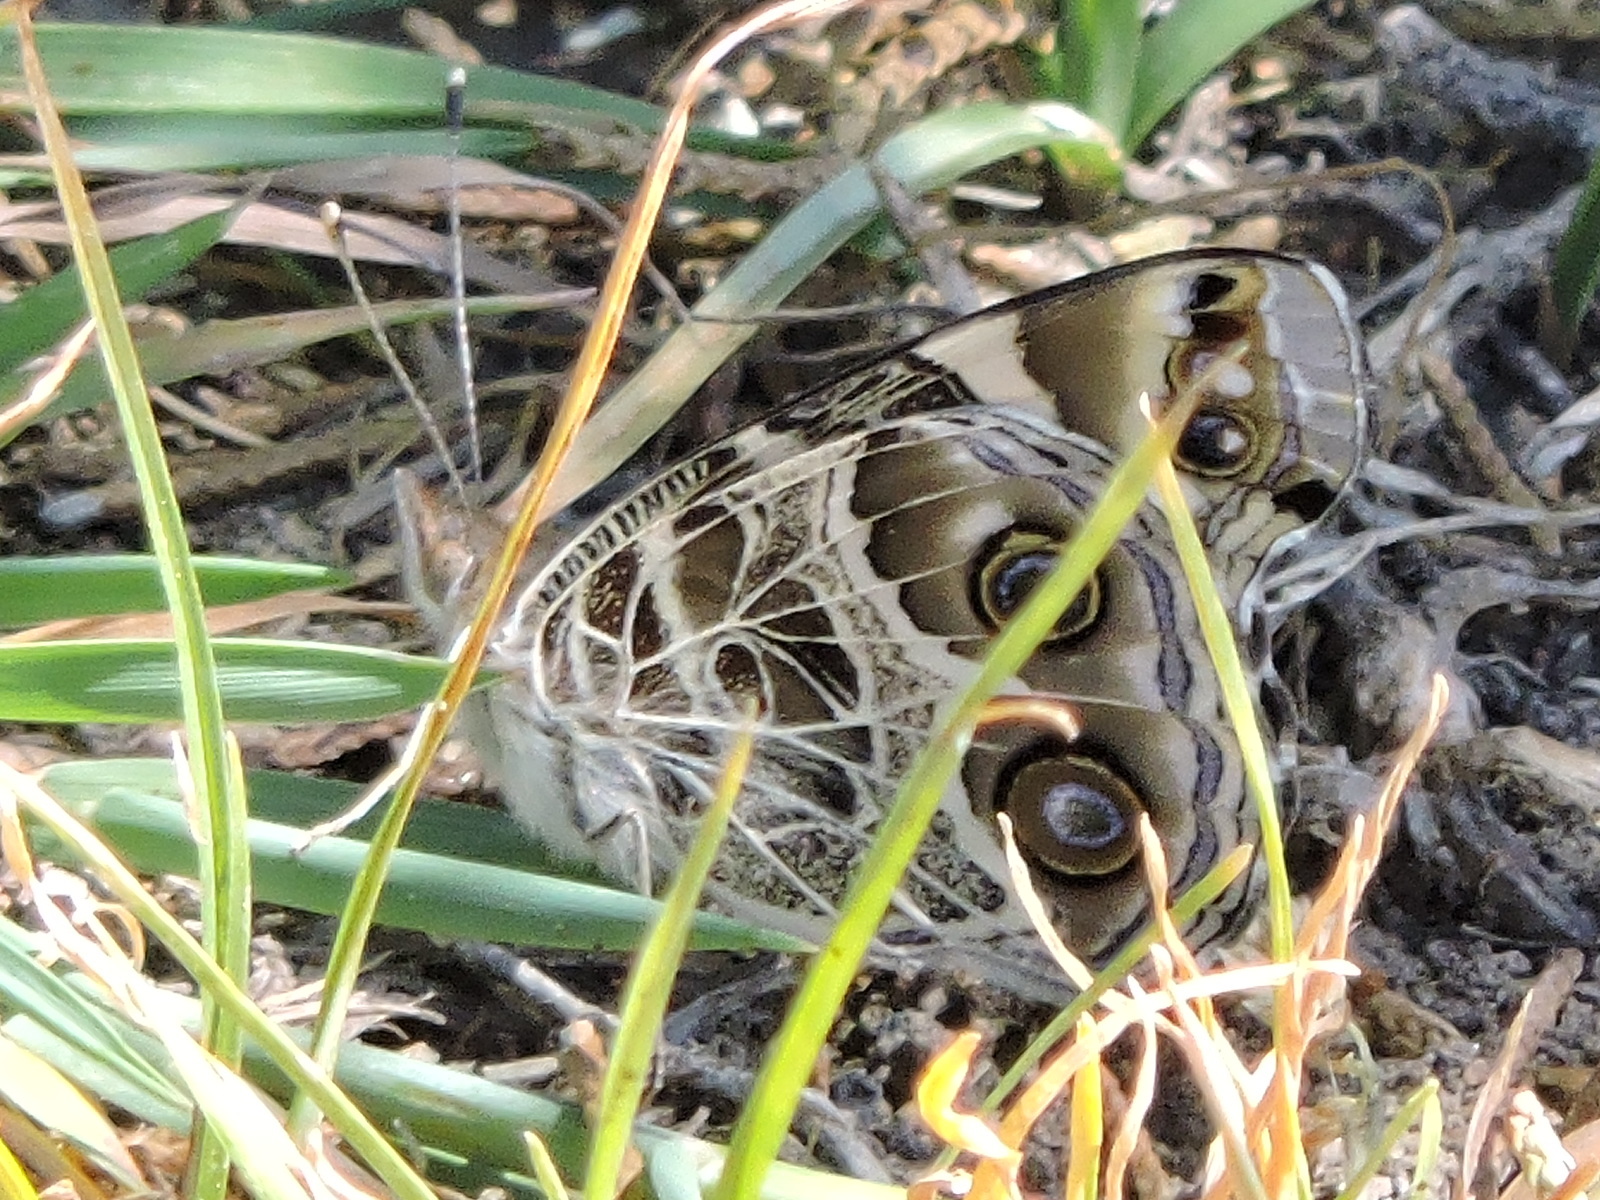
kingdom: Animalia
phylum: Arthropoda
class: Insecta
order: Lepidoptera
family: Nymphalidae
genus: Vanessa
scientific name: Vanessa virginiensis
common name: American lady
